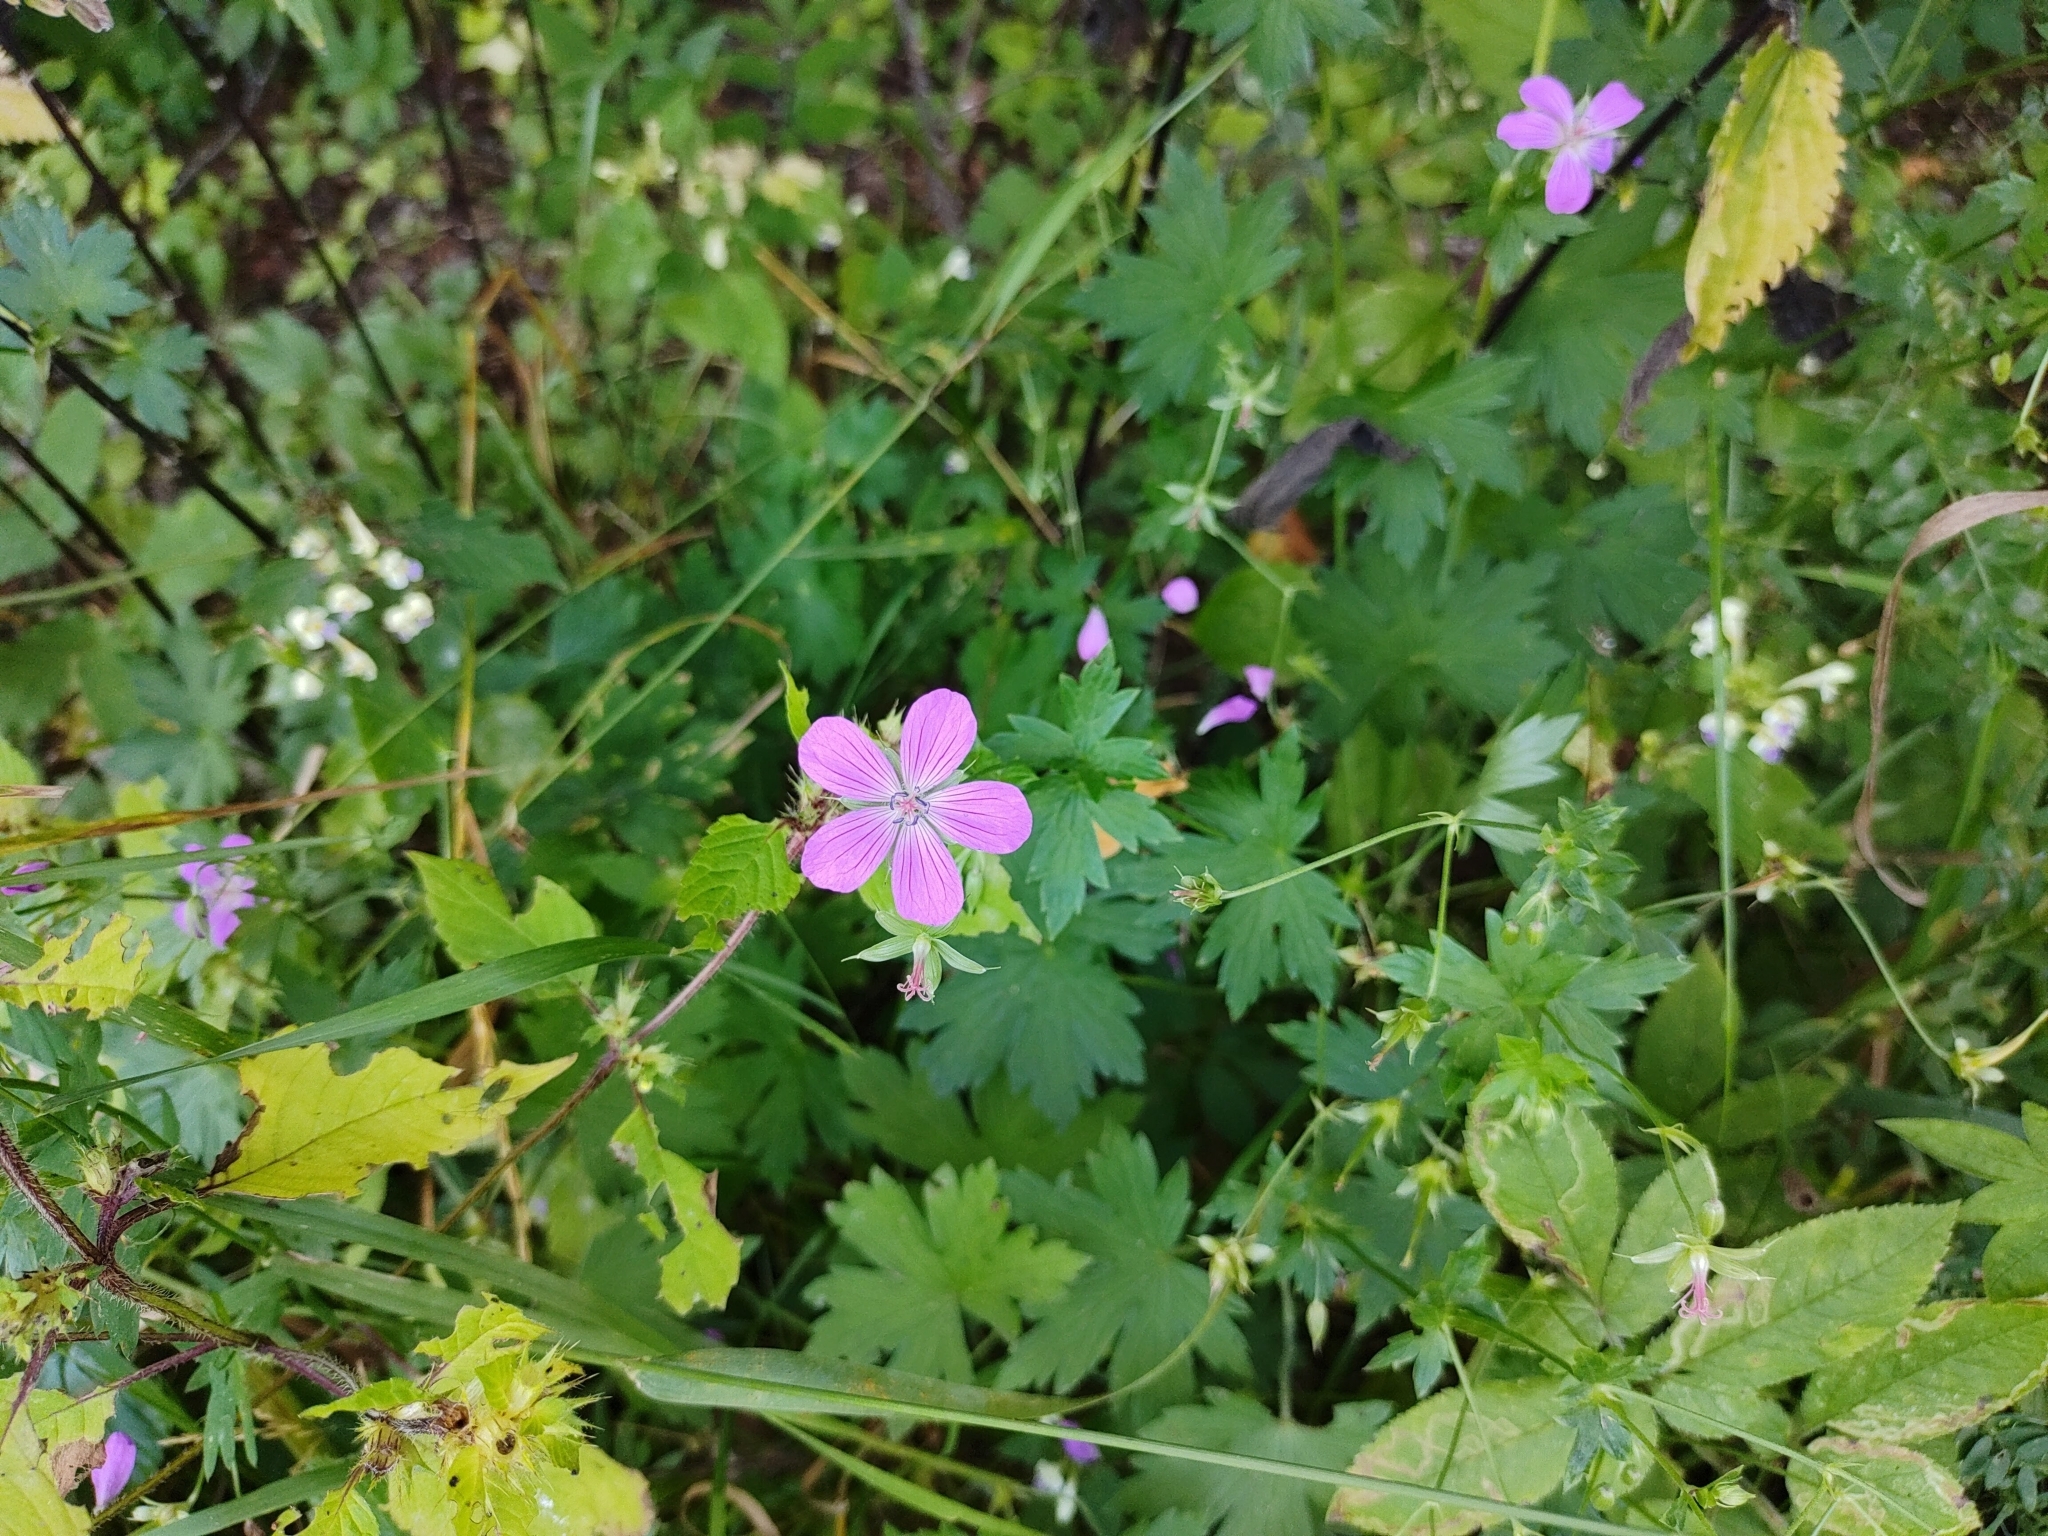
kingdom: Plantae
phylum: Tracheophyta
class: Magnoliopsida
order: Geraniales
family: Geraniaceae
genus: Geranium
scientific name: Geranium palustre
